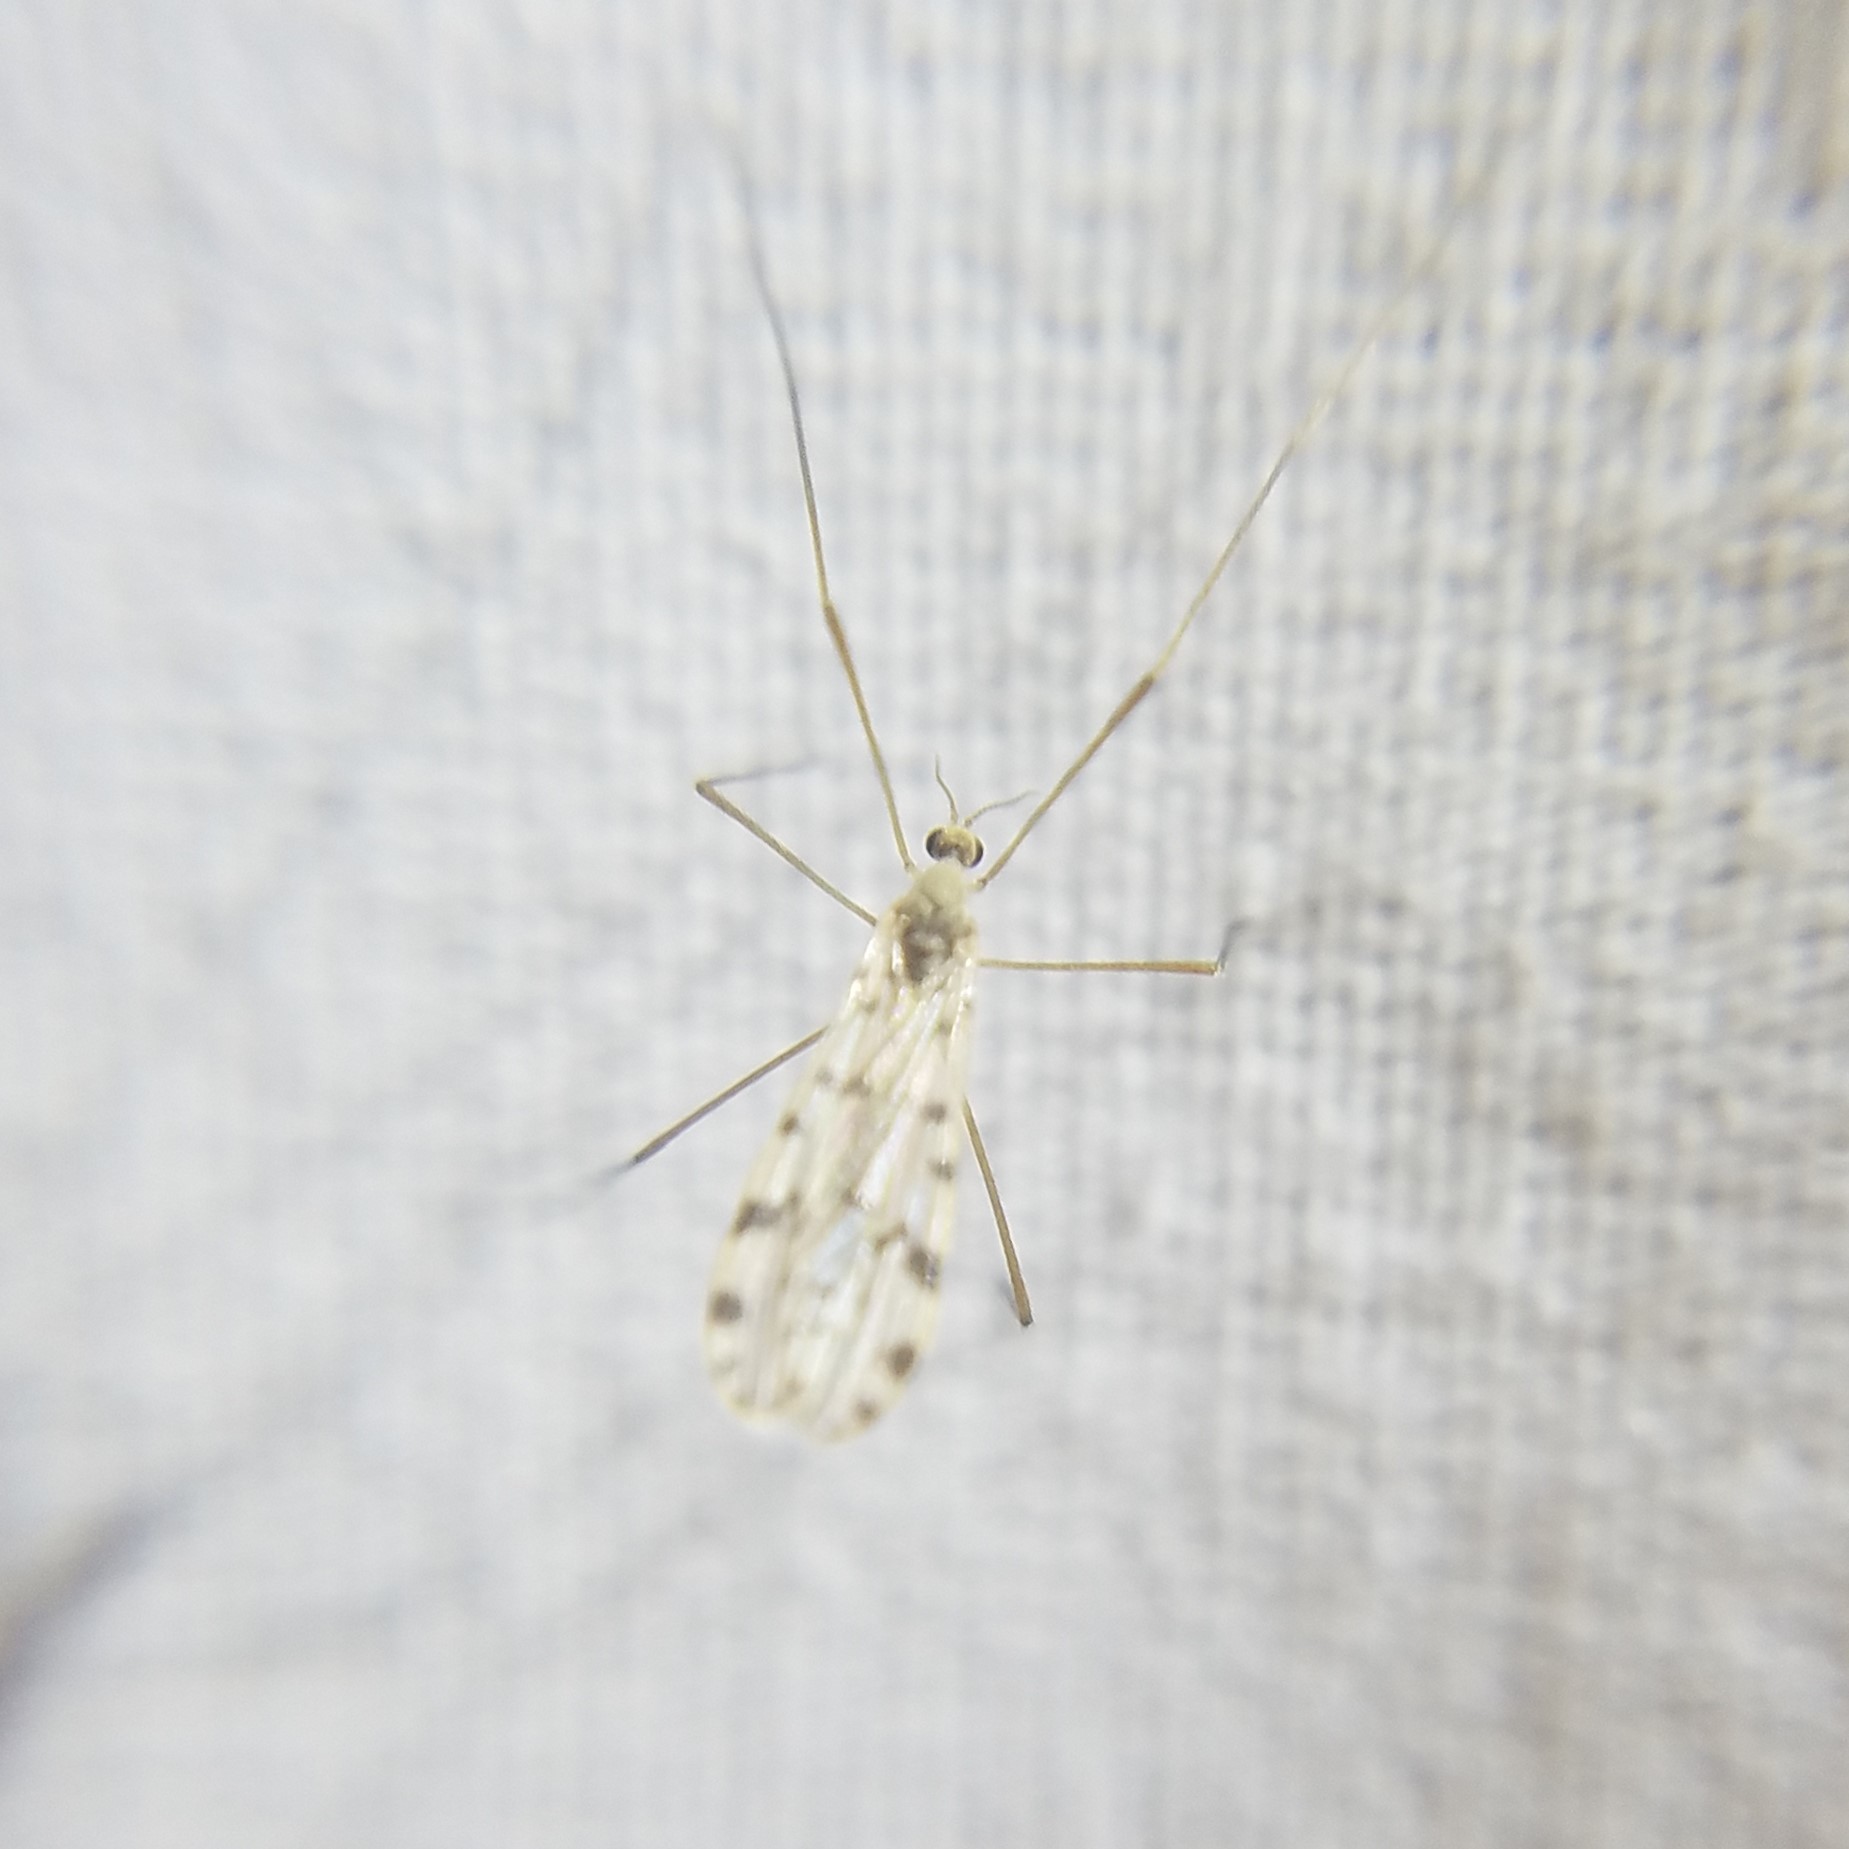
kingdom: Animalia
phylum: Arthropoda
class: Insecta
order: Diptera
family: Limoniidae
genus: Hoplolabis
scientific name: Hoplolabis armata
